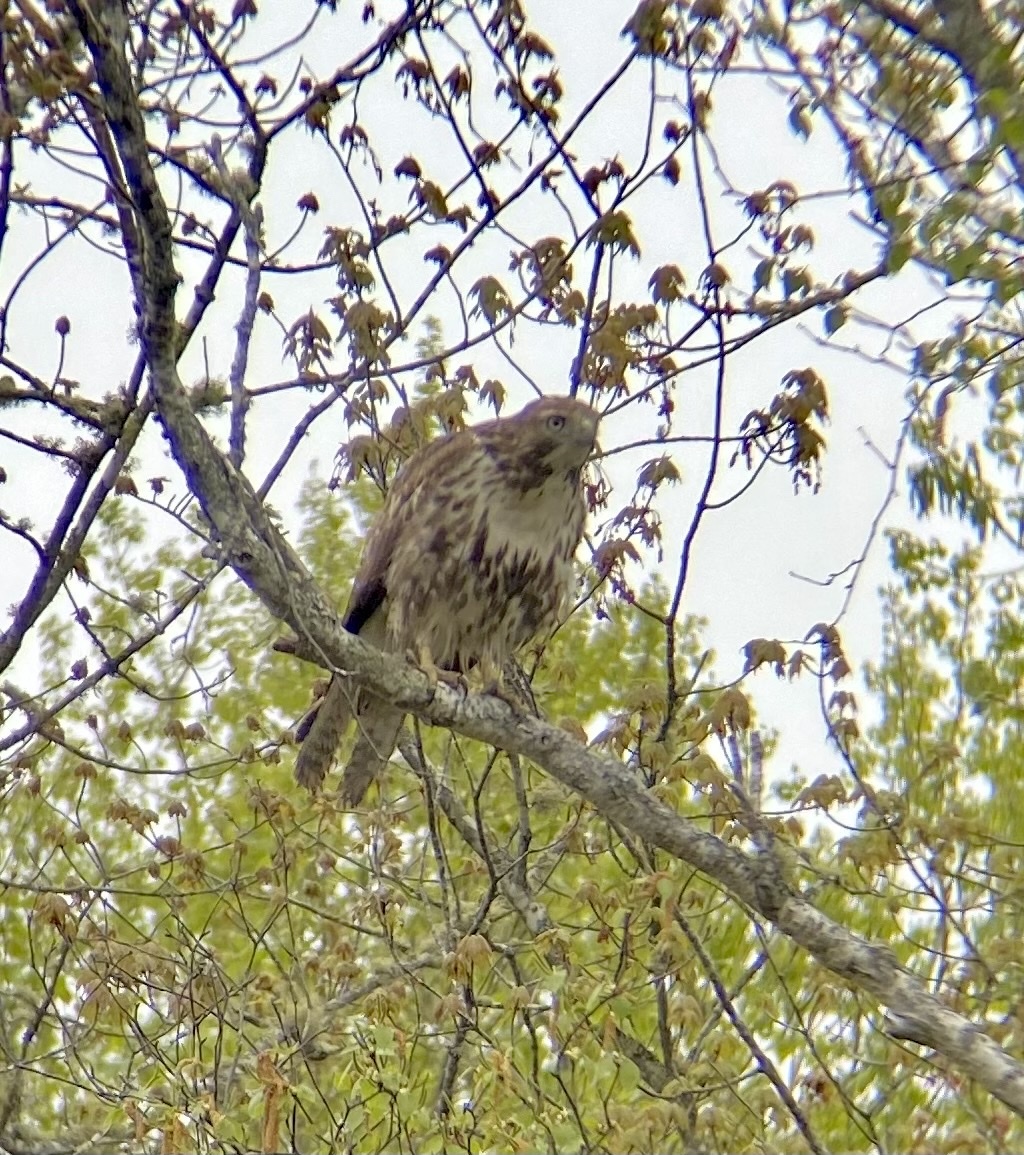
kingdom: Animalia
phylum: Chordata
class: Aves
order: Accipitriformes
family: Accipitridae
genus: Buteo
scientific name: Buteo jamaicensis
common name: Red-tailed hawk
